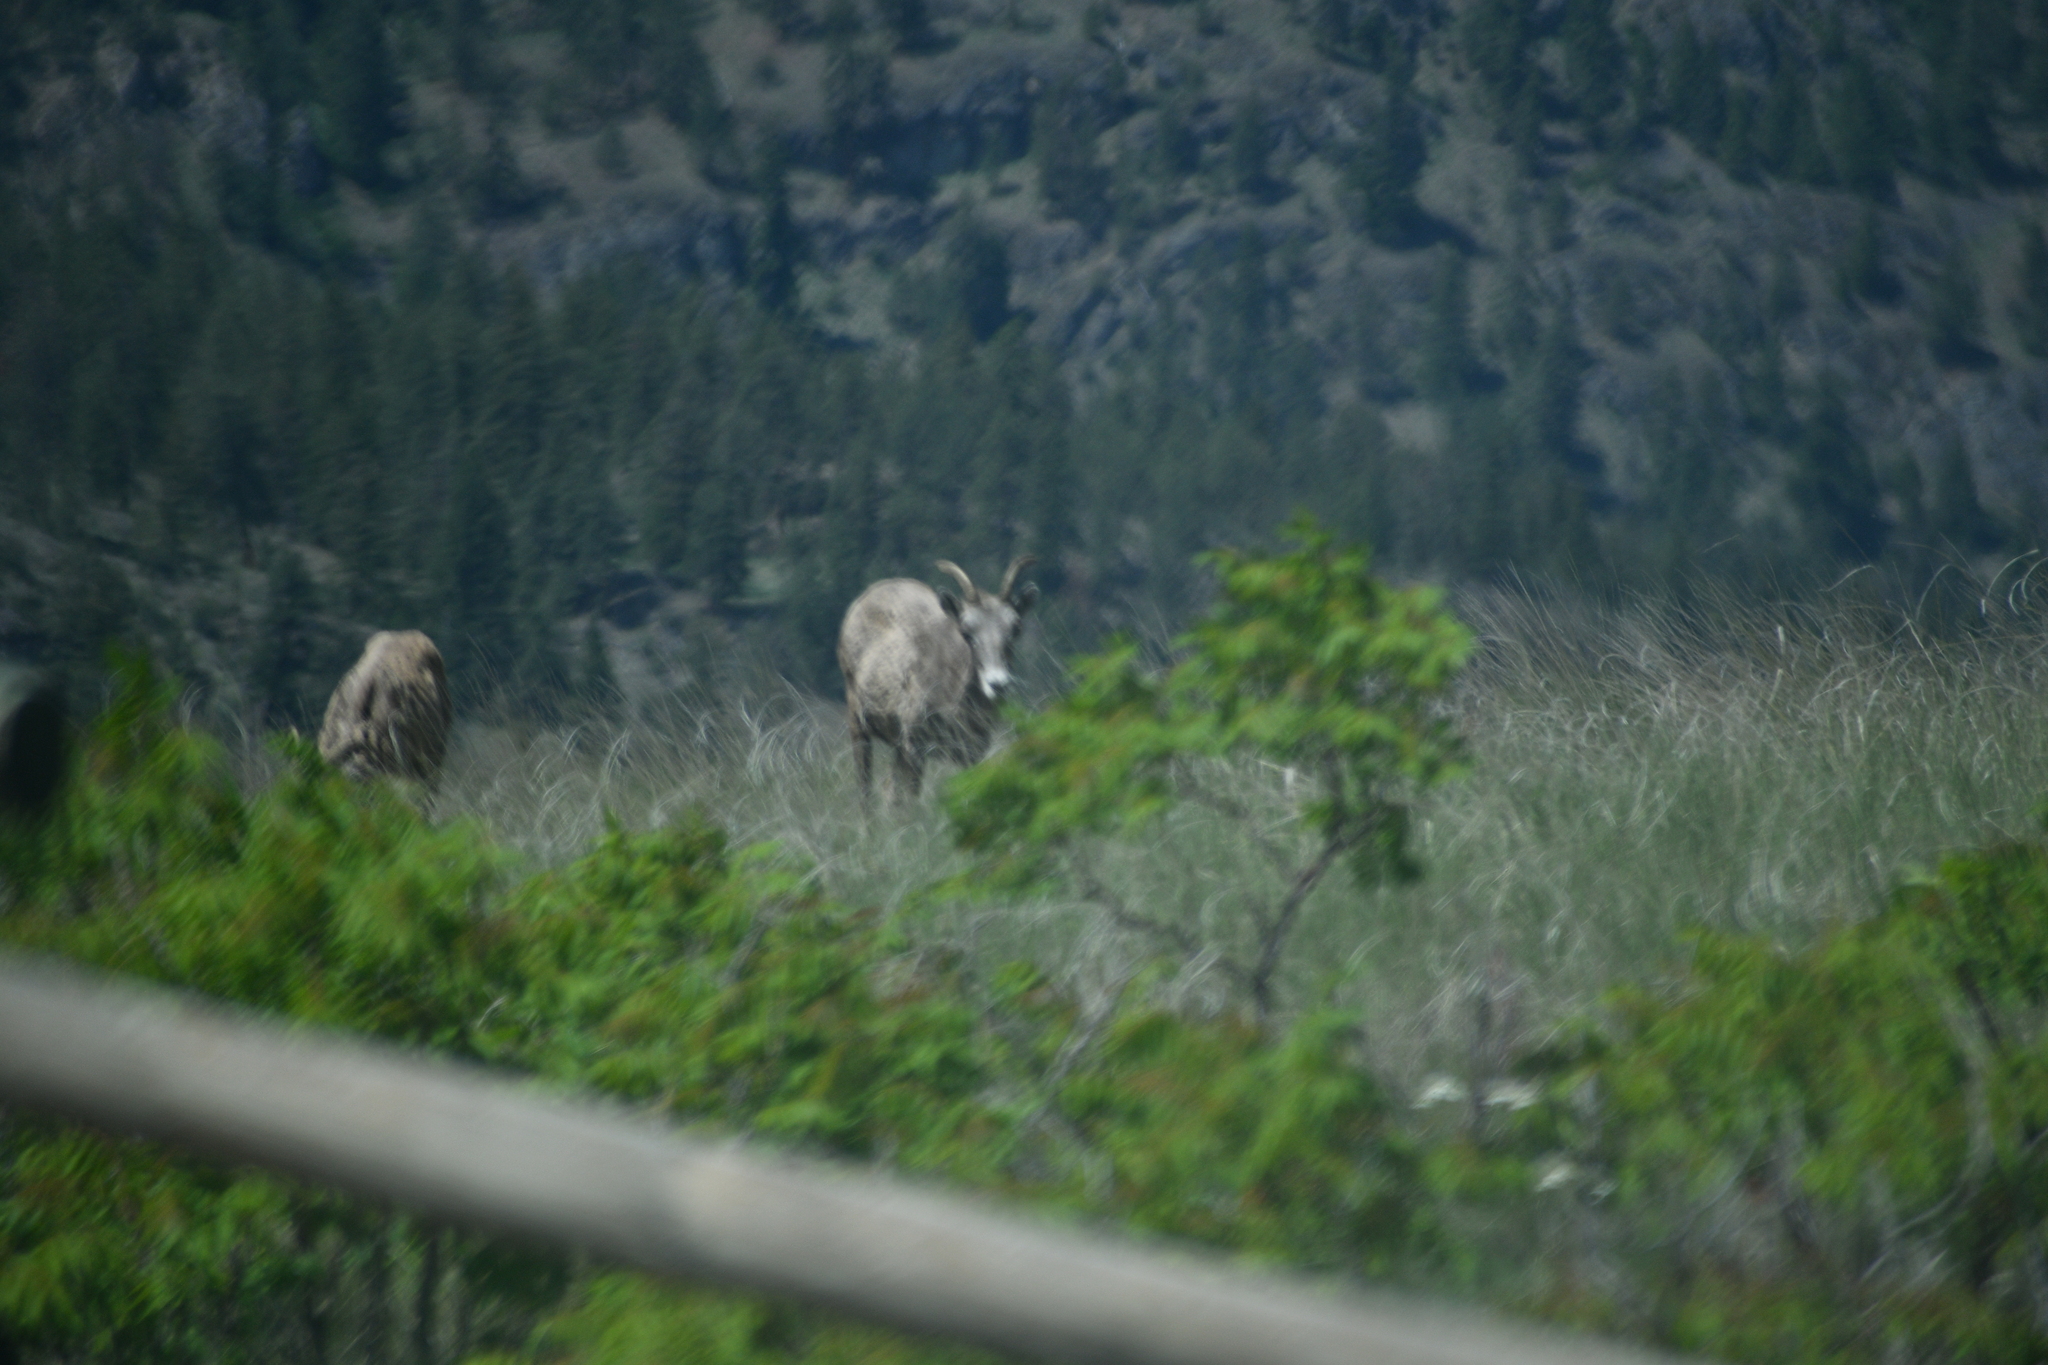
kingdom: Animalia
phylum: Chordata
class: Mammalia
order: Artiodactyla
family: Bovidae
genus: Ovis
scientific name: Ovis canadensis
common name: Bighorn sheep
